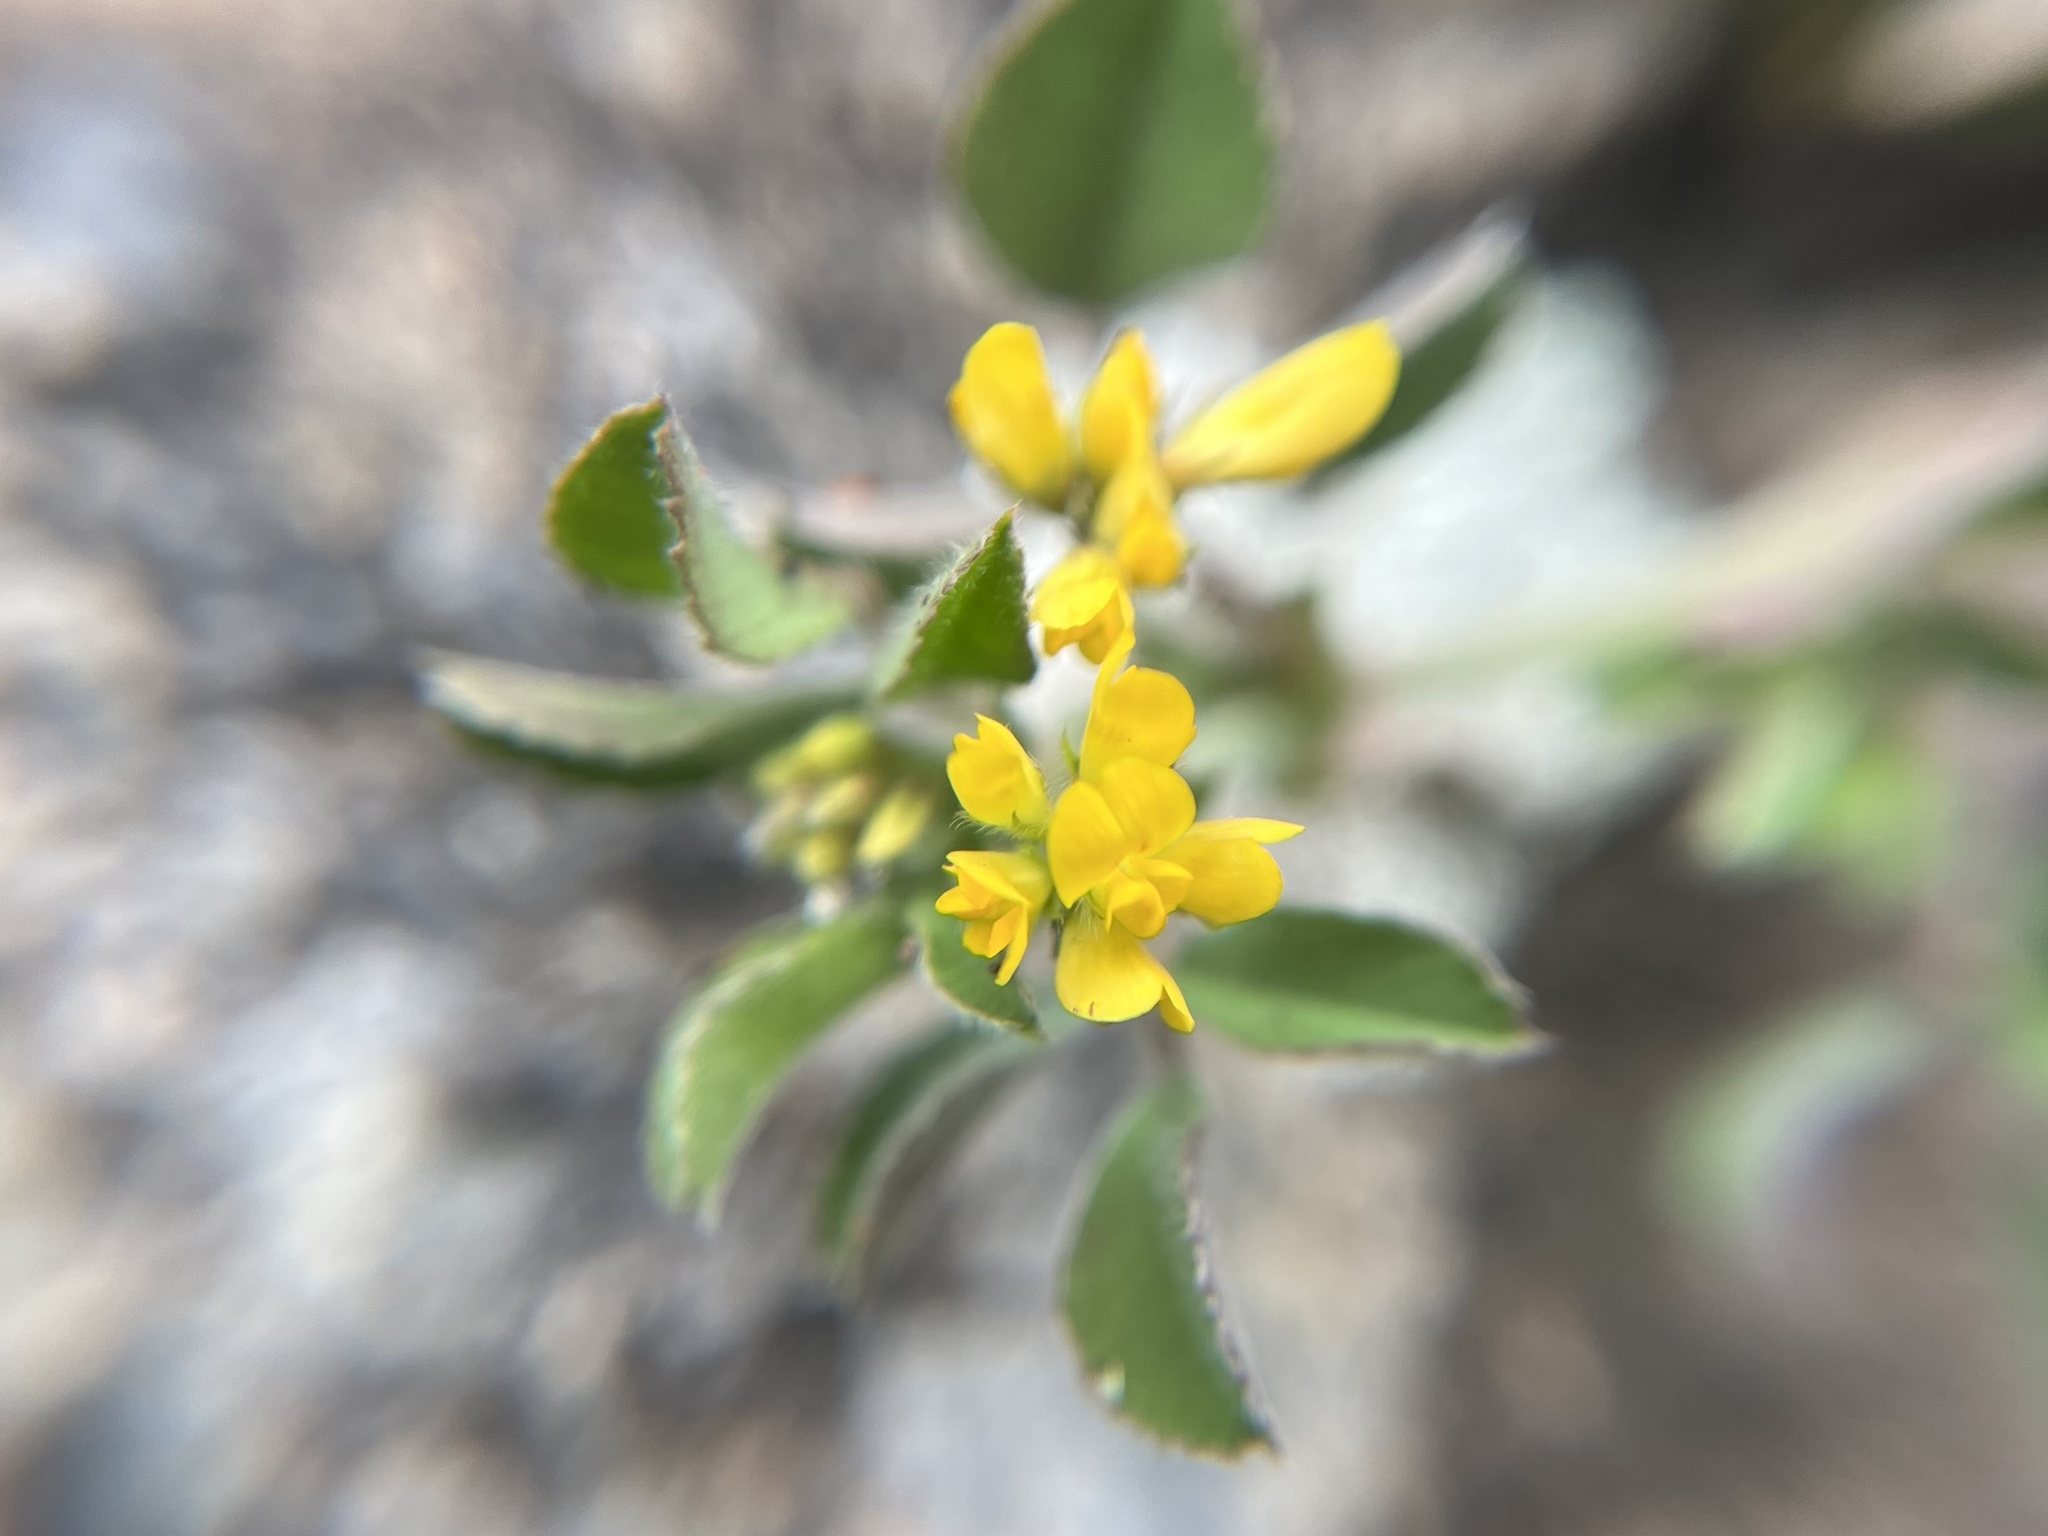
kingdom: Plantae
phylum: Tracheophyta
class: Magnoliopsida
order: Fabales
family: Fabaceae
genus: Medicago
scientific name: Medicago minima
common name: Little bur-clover
